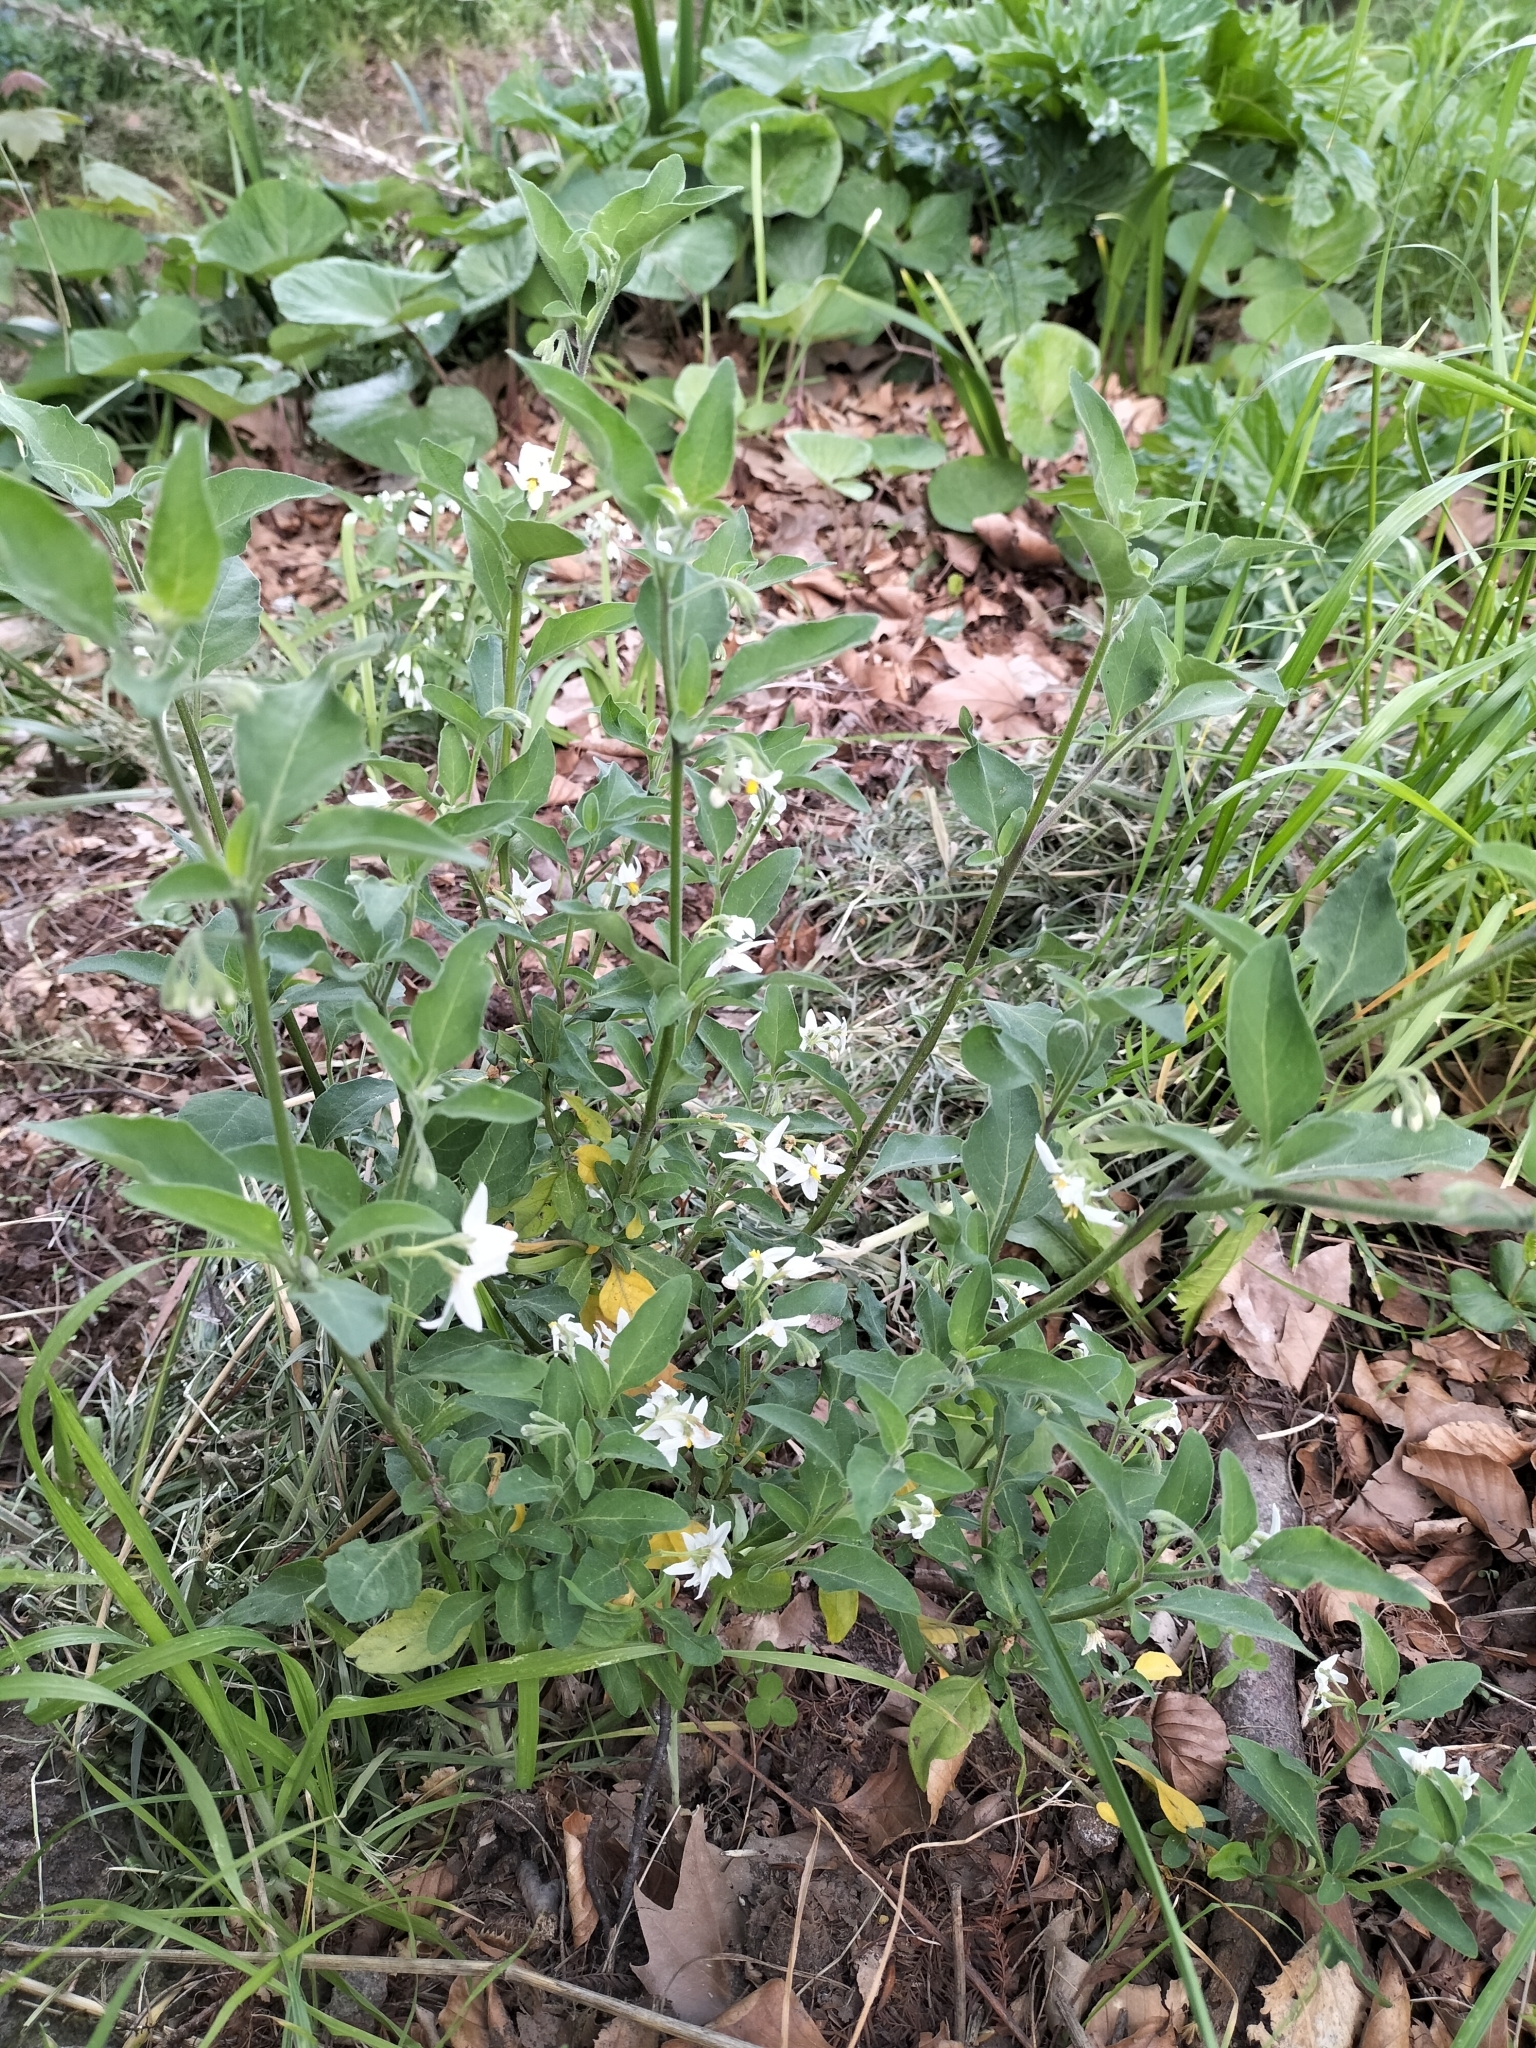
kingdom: Plantae
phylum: Tracheophyta
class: Magnoliopsida
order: Solanales
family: Solanaceae
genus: Solanum
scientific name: Solanum chenopodioides
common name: Tall nightshade
